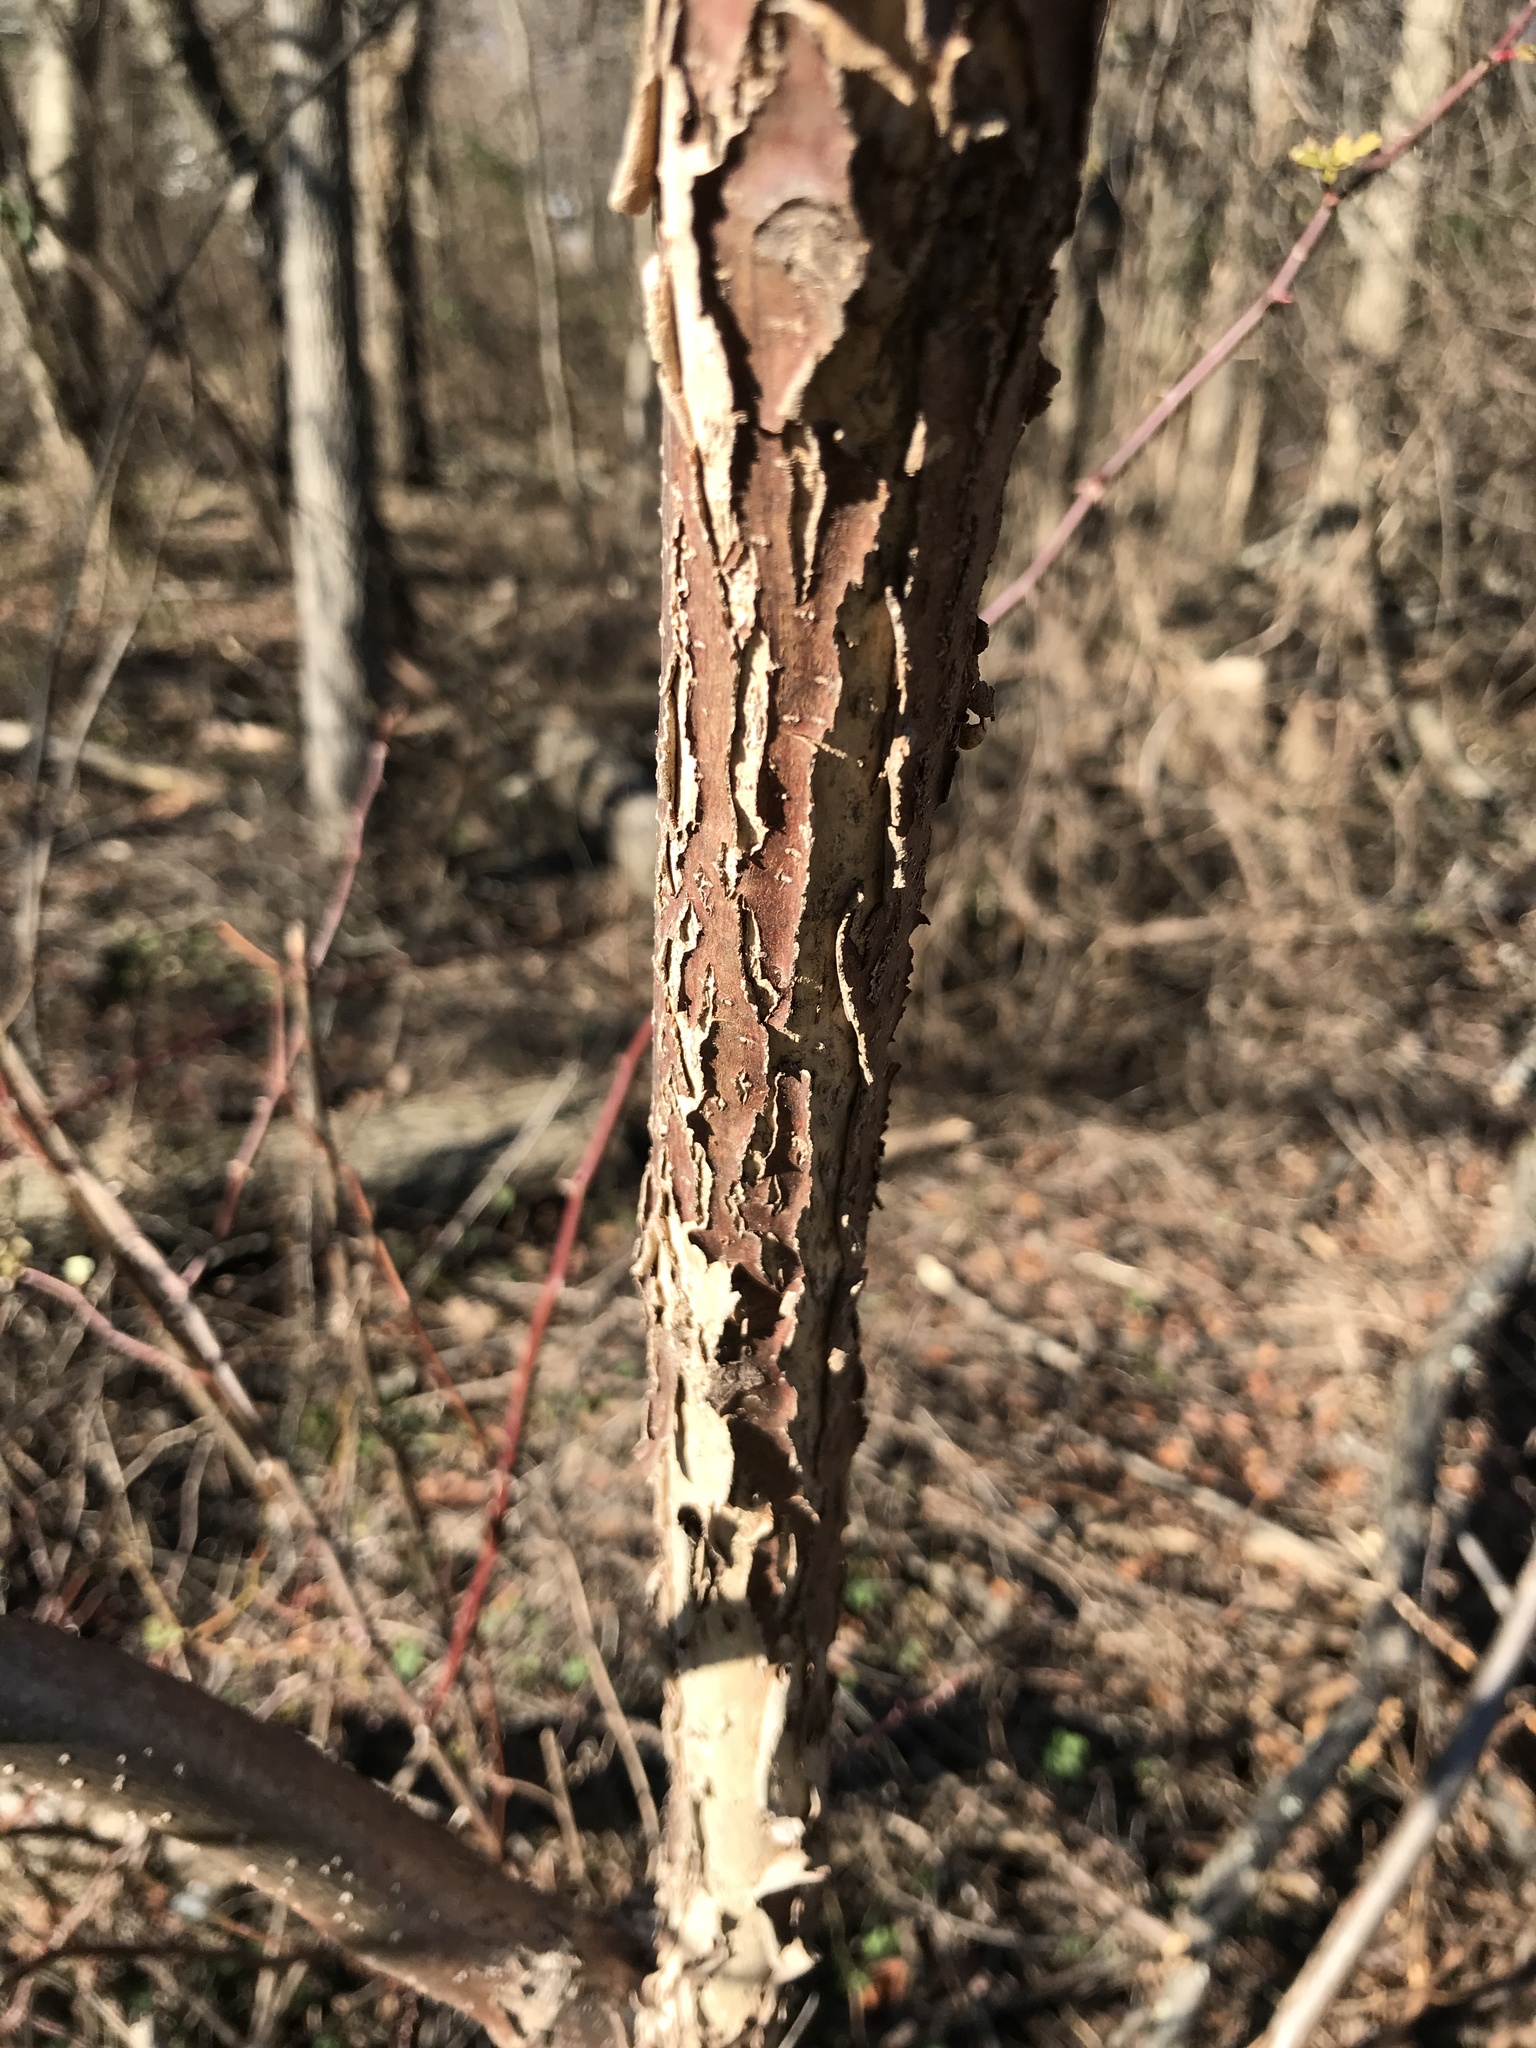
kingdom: Plantae
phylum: Tracheophyta
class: Magnoliopsida
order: Fagales
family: Juglandaceae
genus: Juglans
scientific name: Juglans nigra
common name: Black walnut
